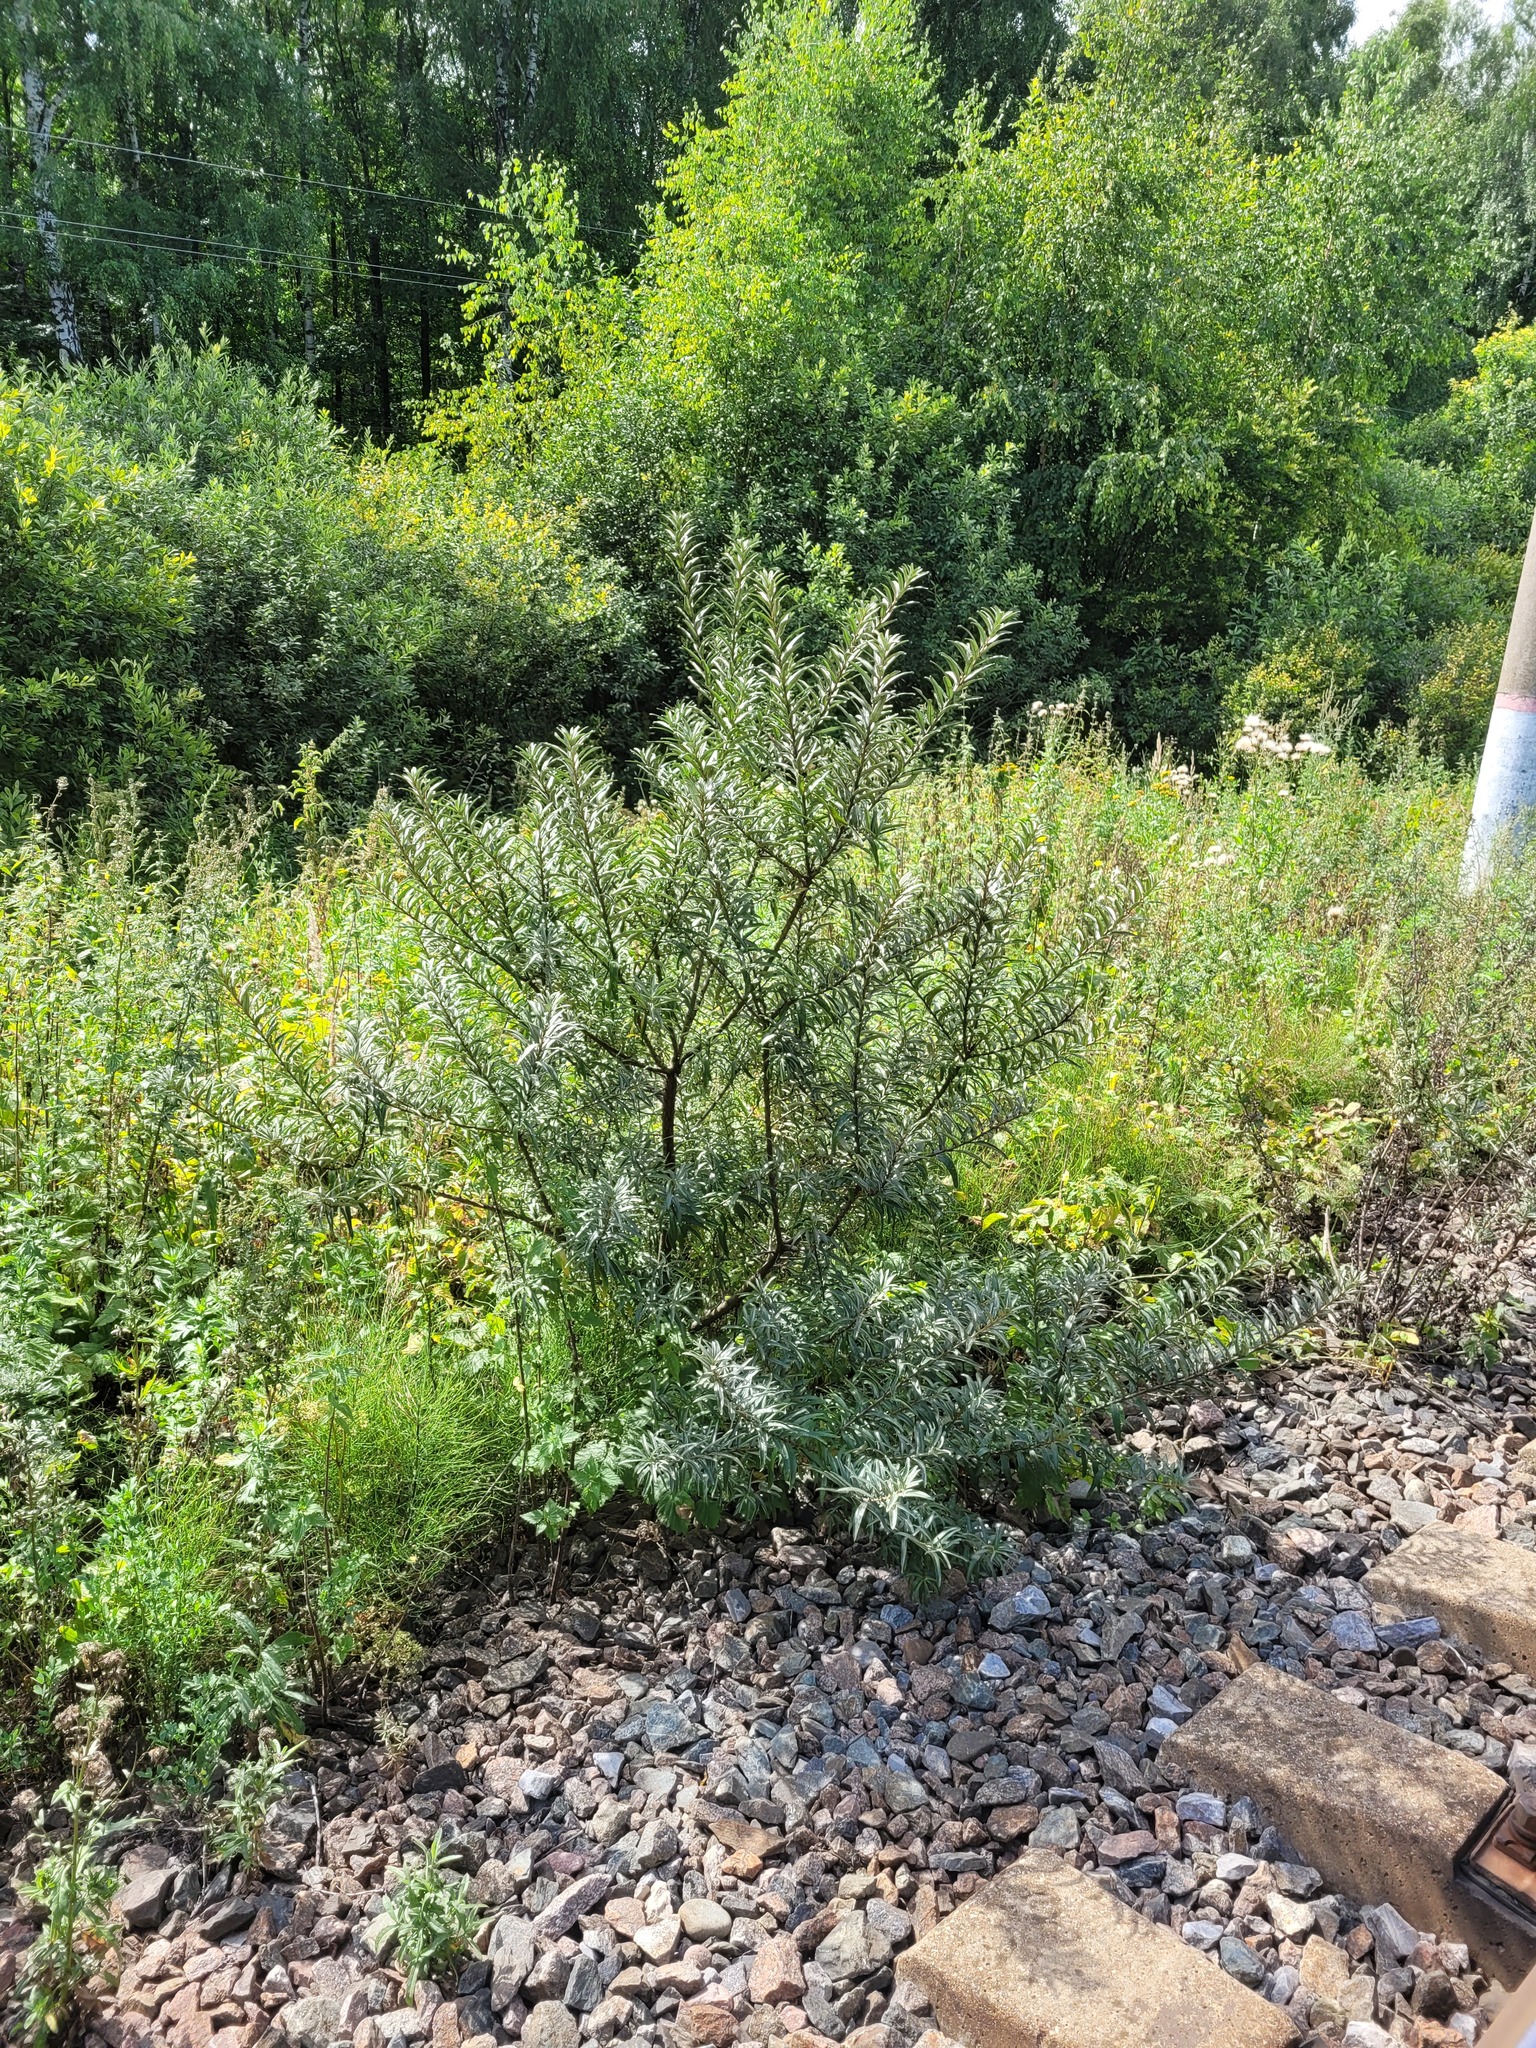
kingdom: Plantae
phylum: Tracheophyta
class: Magnoliopsida
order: Rosales
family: Elaeagnaceae
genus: Hippophae
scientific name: Hippophae rhamnoides
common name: Sea-buckthorn
